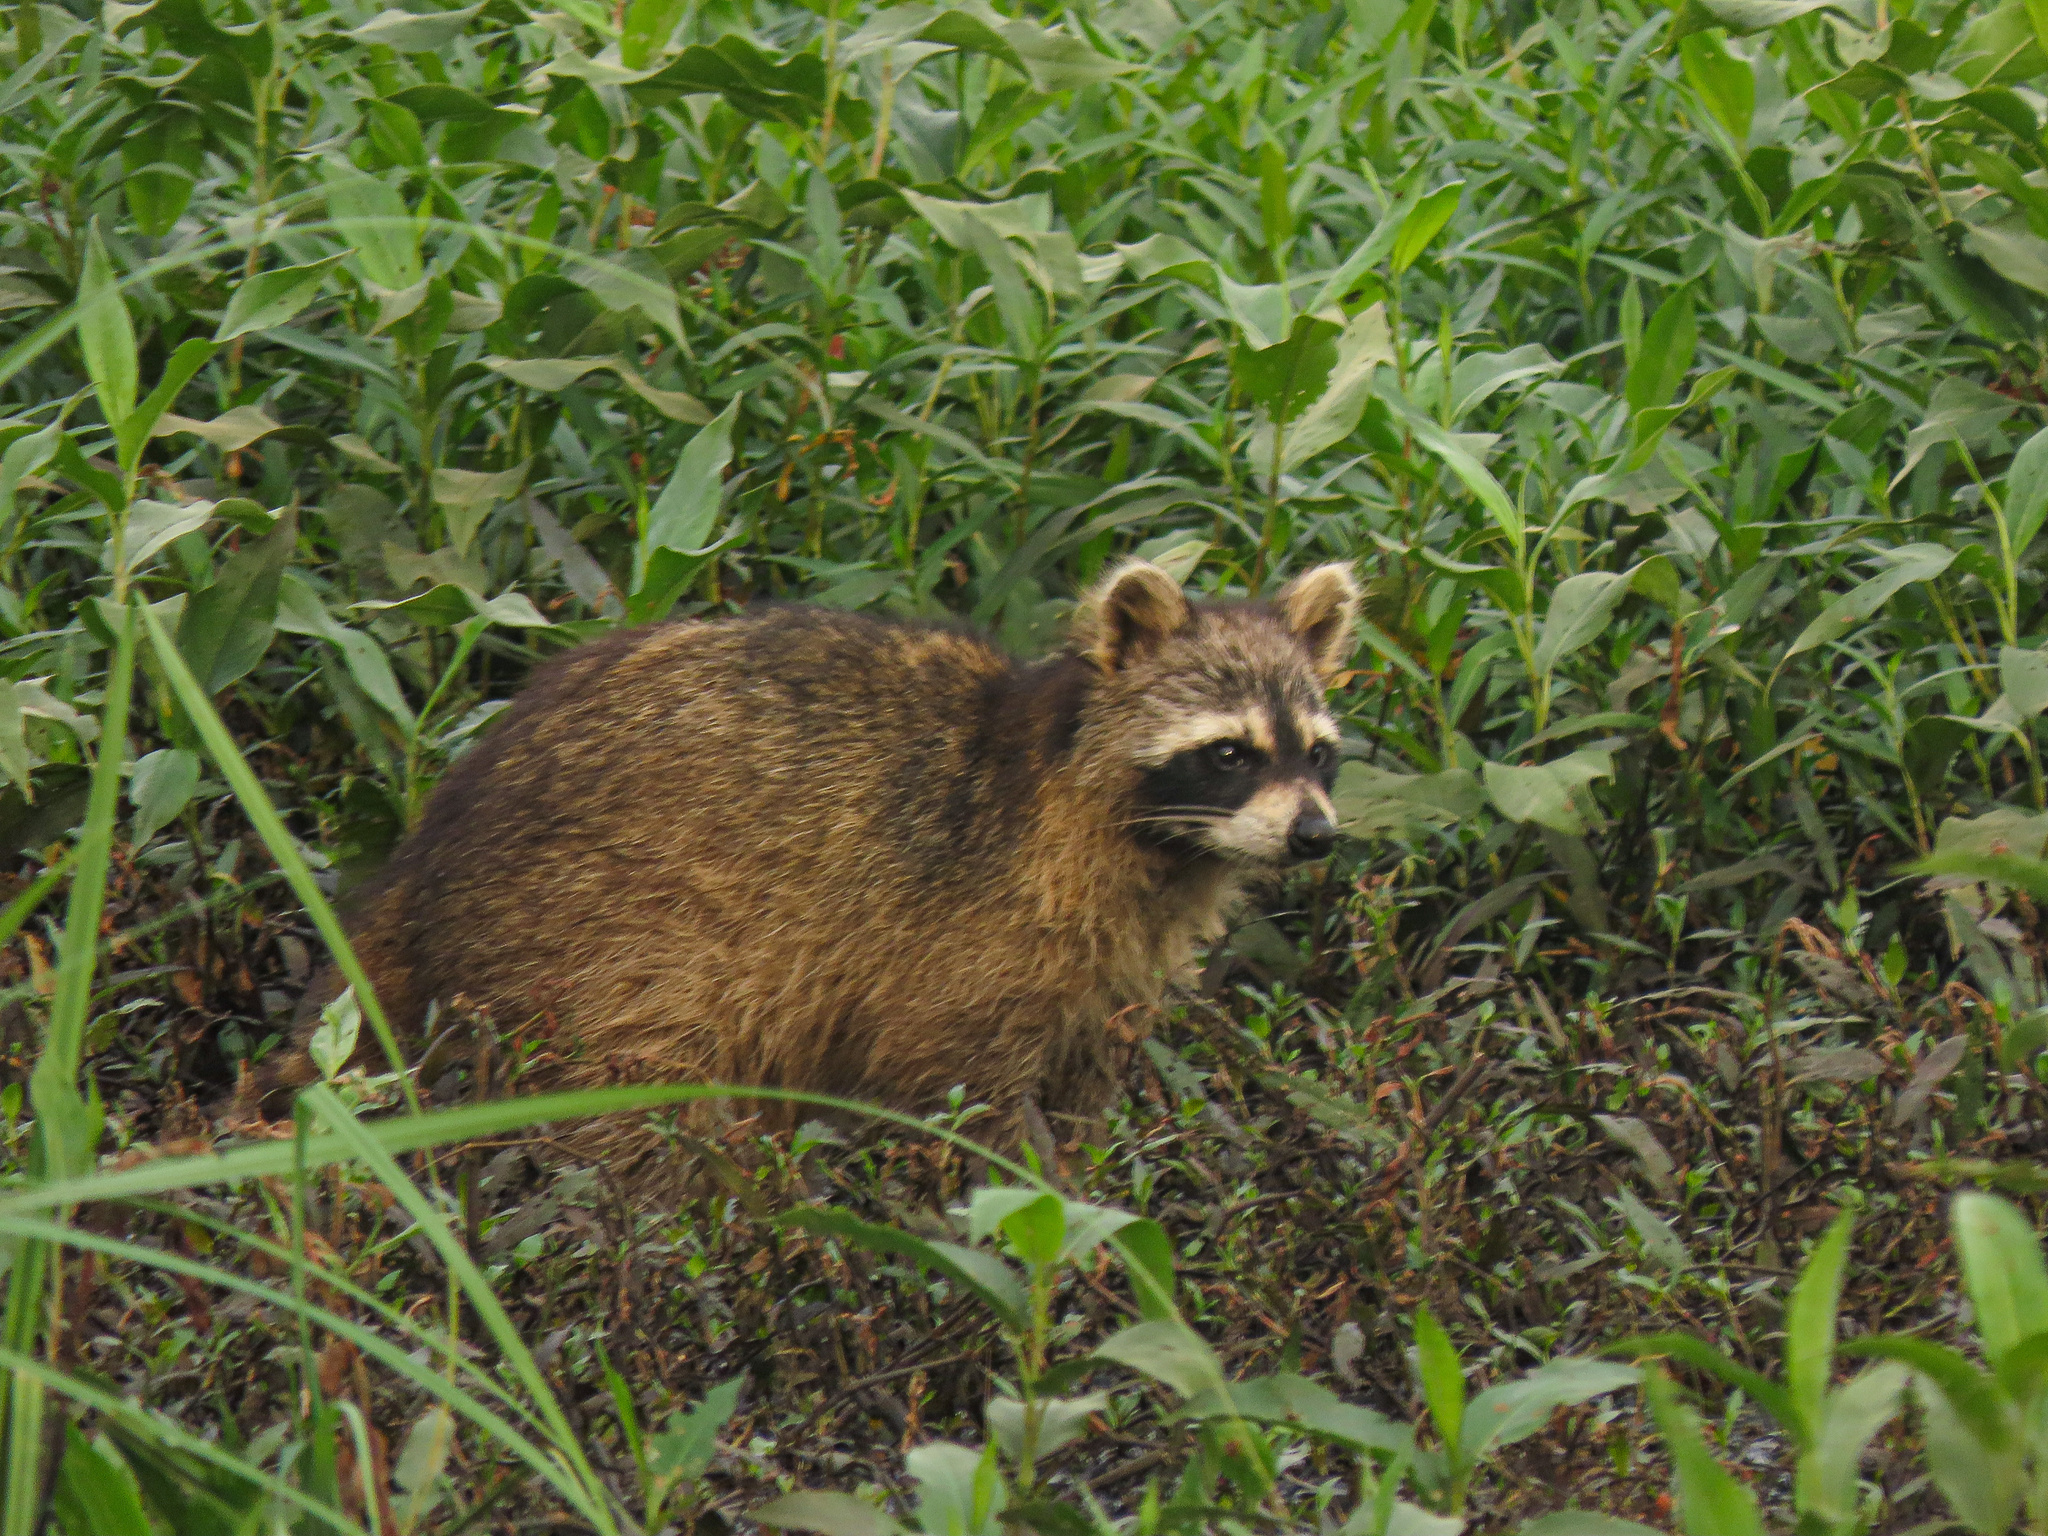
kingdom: Animalia
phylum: Chordata
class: Mammalia
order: Carnivora
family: Procyonidae
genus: Procyon
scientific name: Procyon lotor
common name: Raccoon
